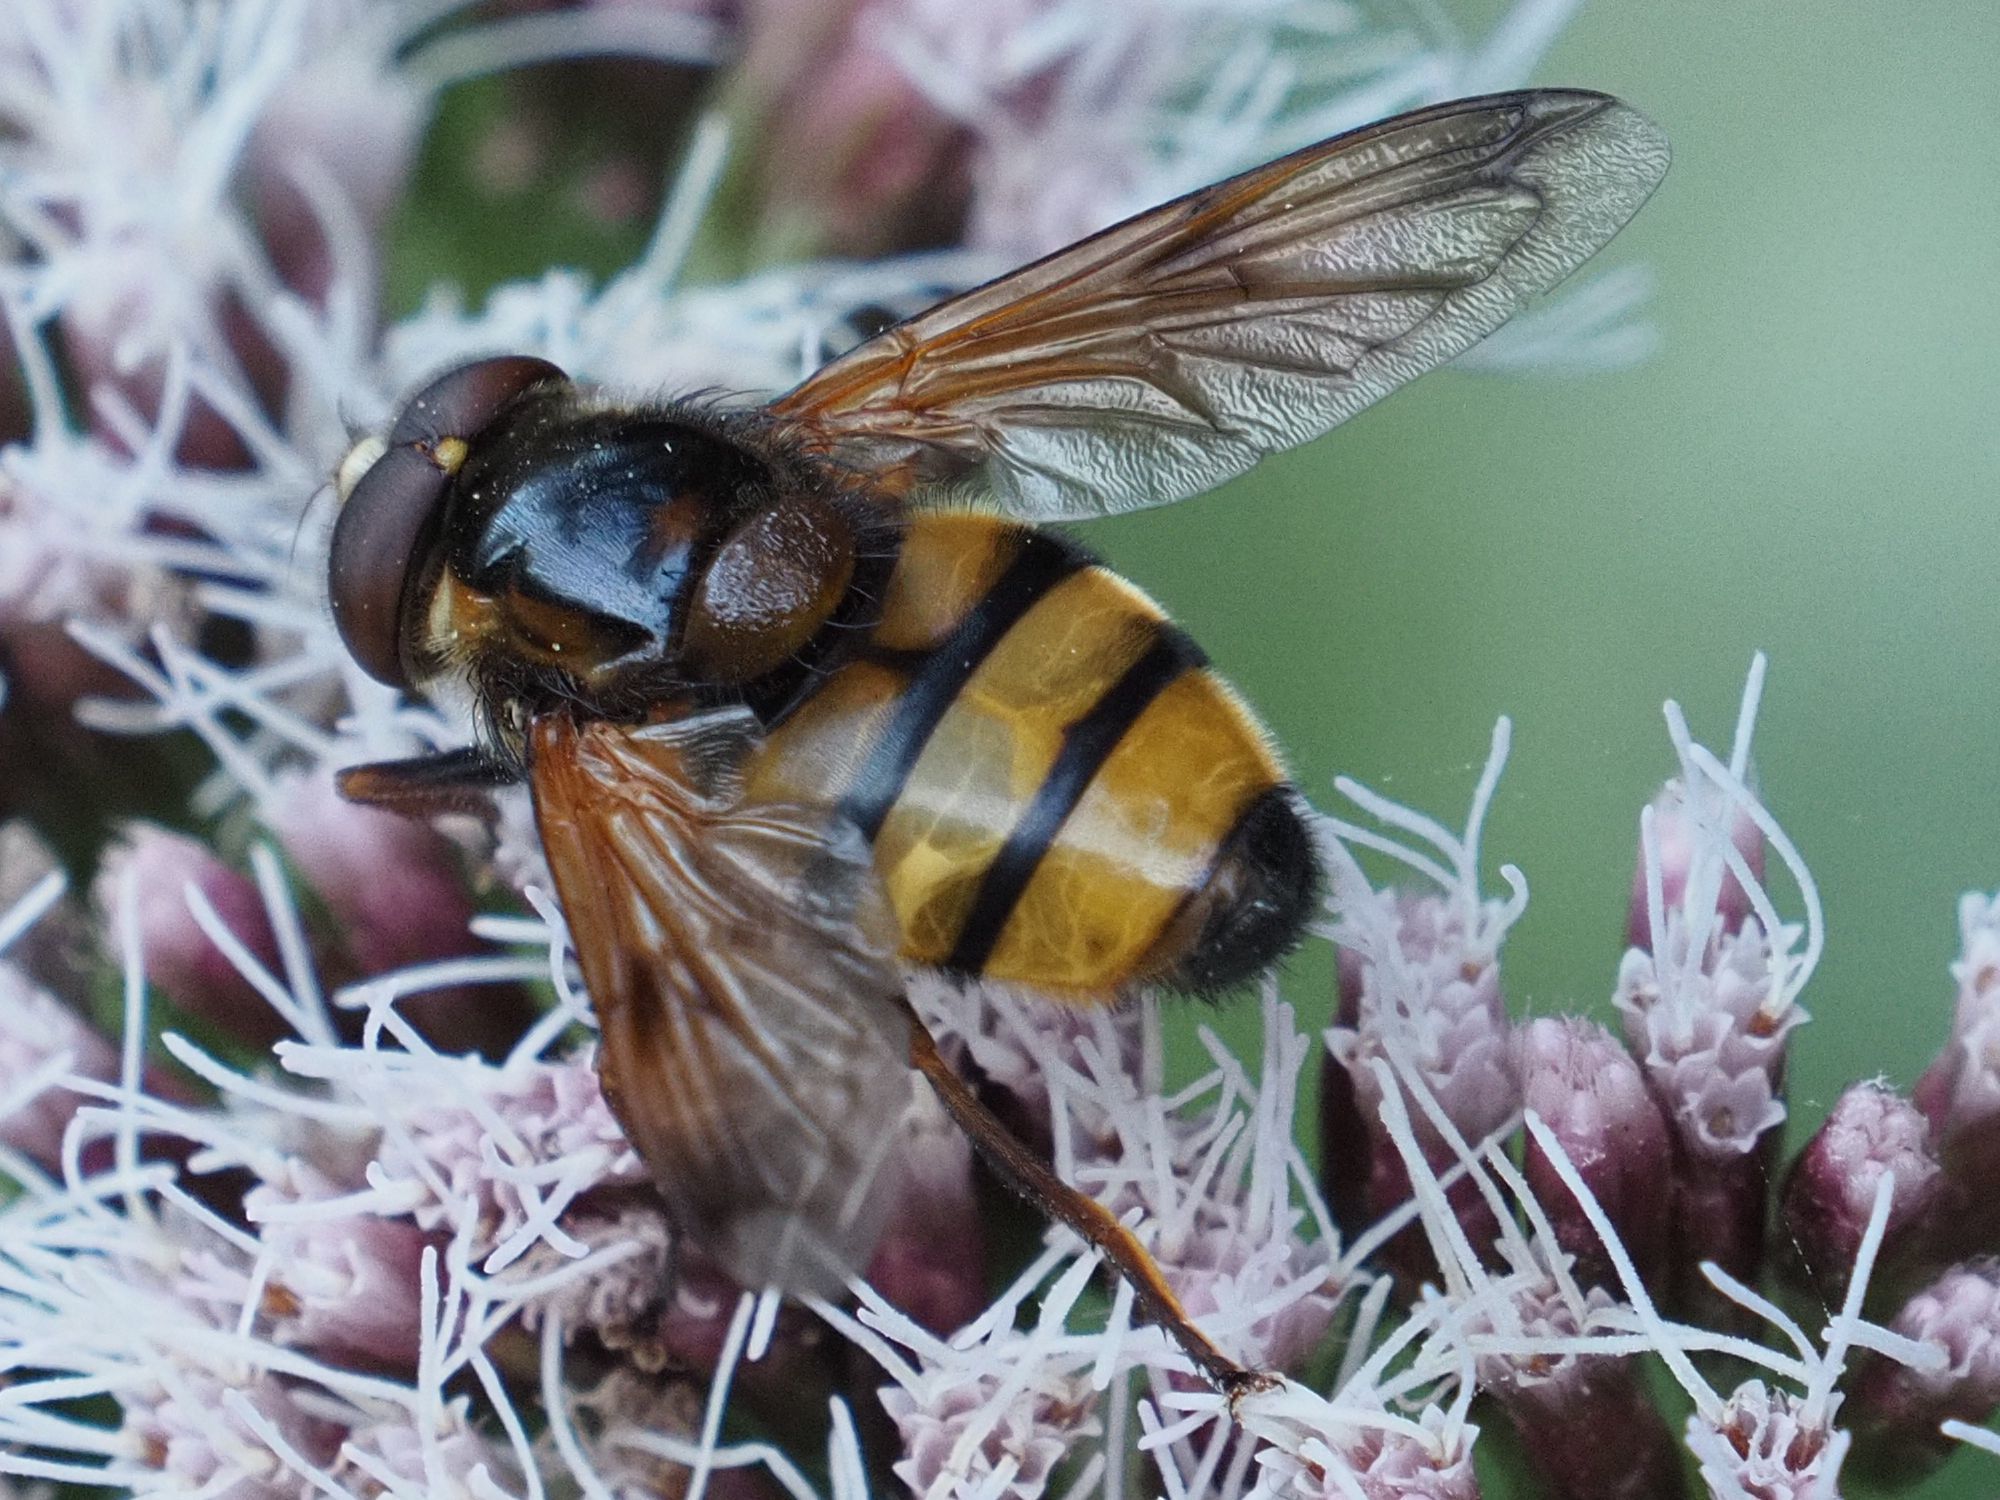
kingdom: Animalia
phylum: Arthropoda
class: Insecta
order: Diptera
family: Syrphidae
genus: Volucella
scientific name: Volucella inanis
